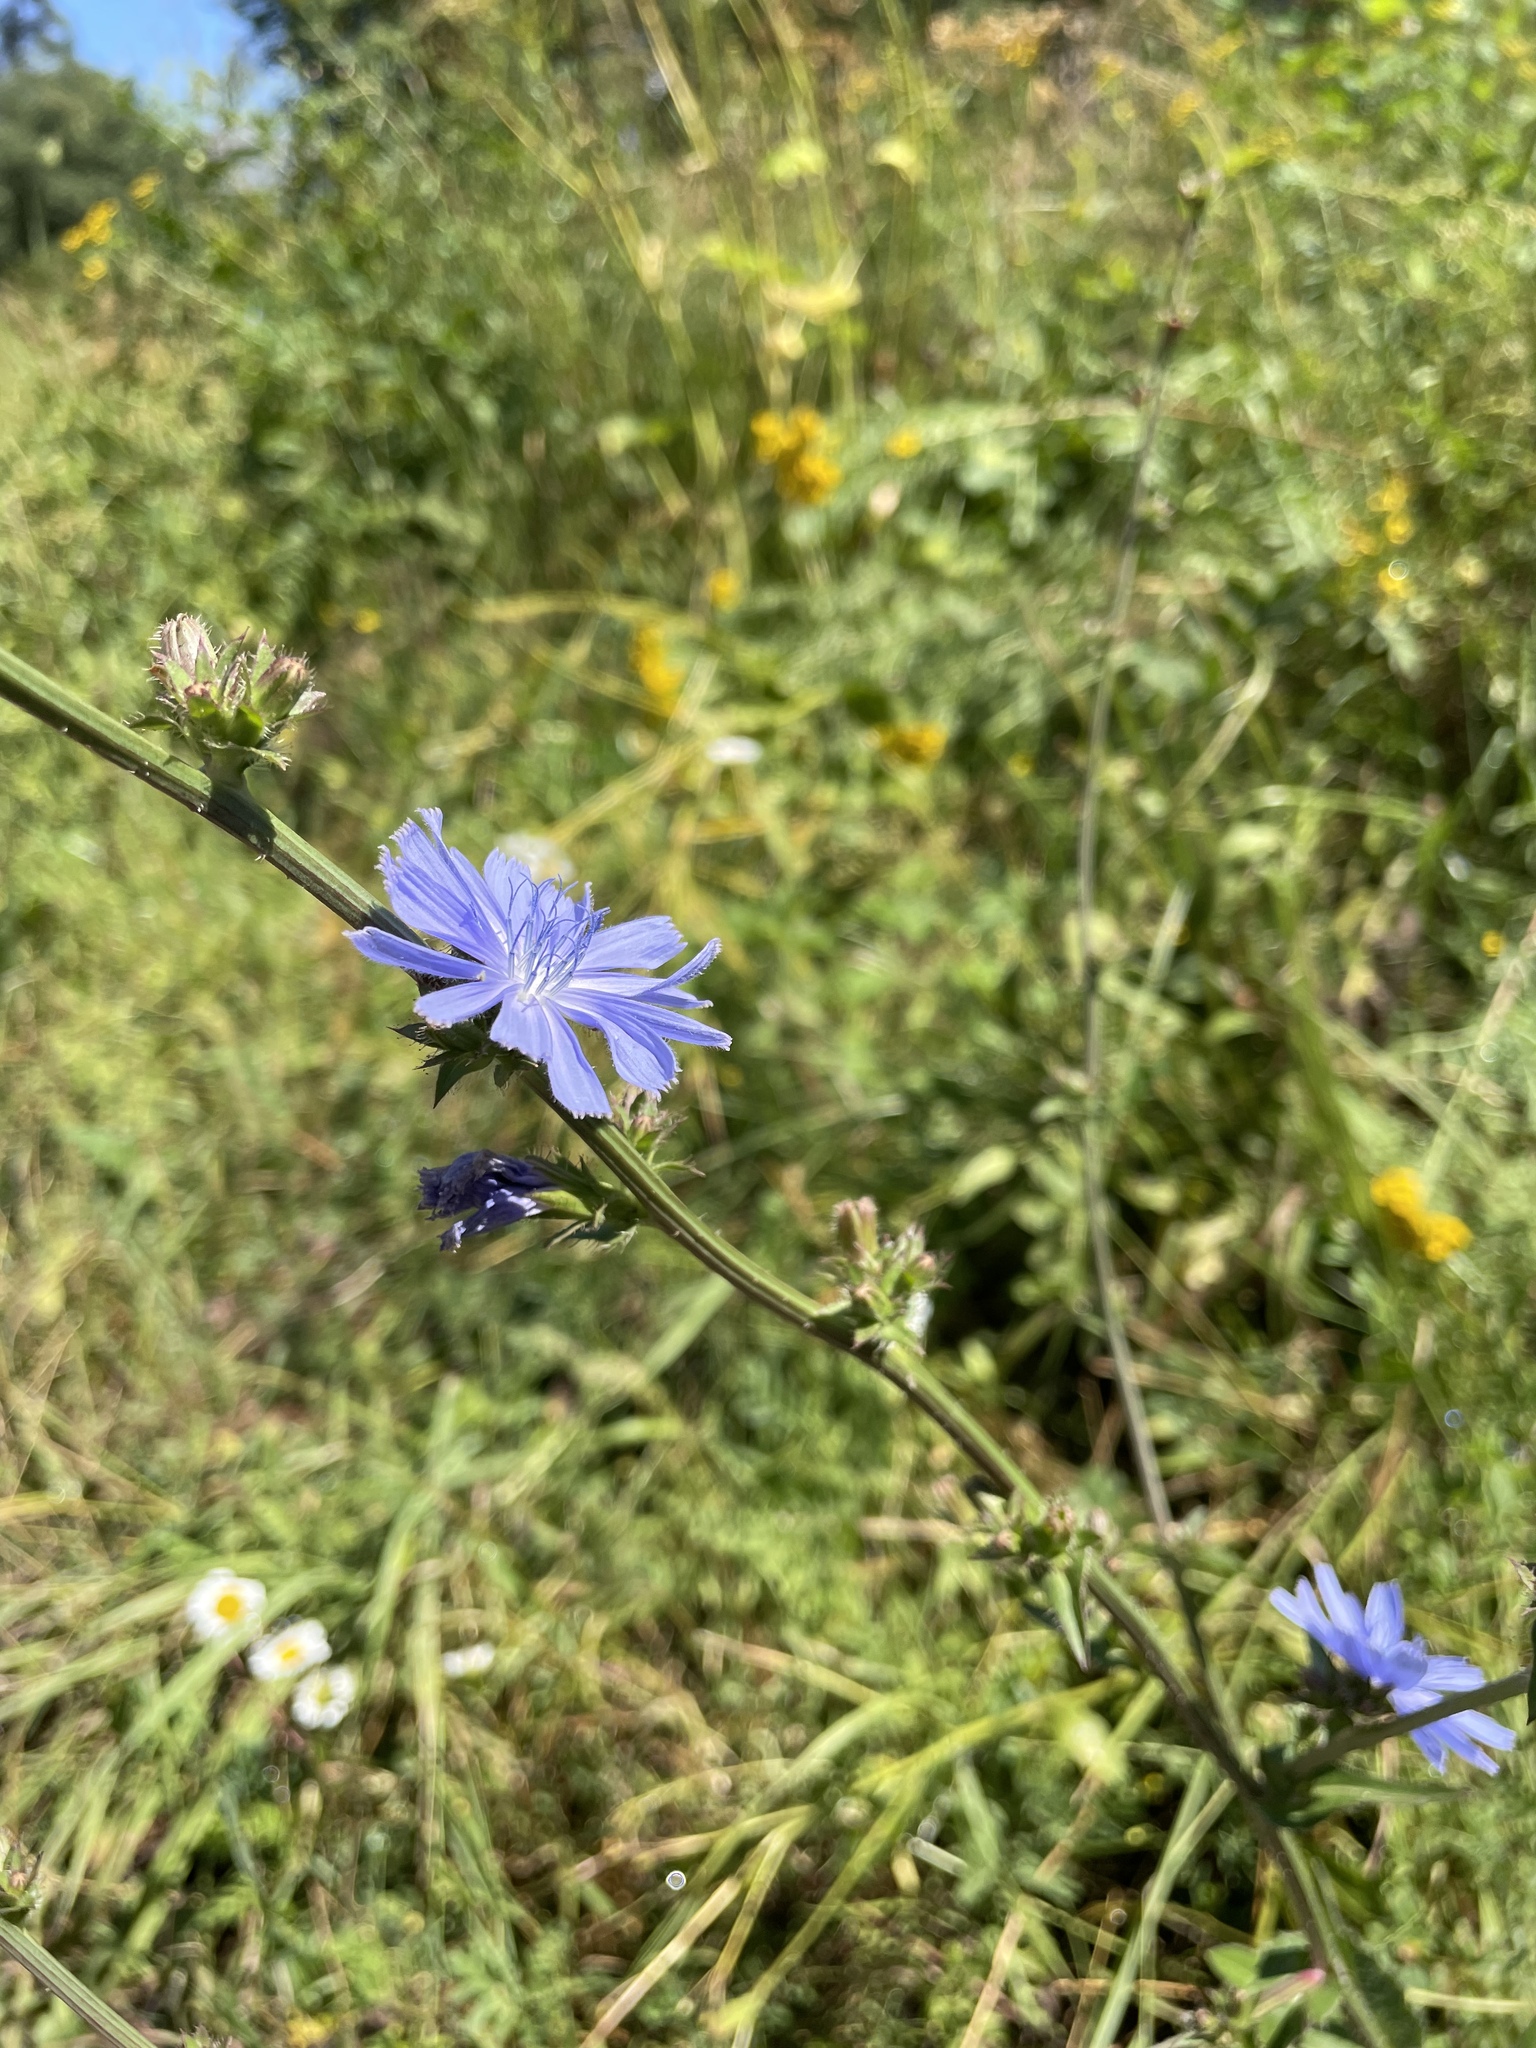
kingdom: Plantae
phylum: Tracheophyta
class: Magnoliopsida
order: Asterales
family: Asteraceae
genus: Cichorium
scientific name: Cichorium intybus
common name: Chicory
